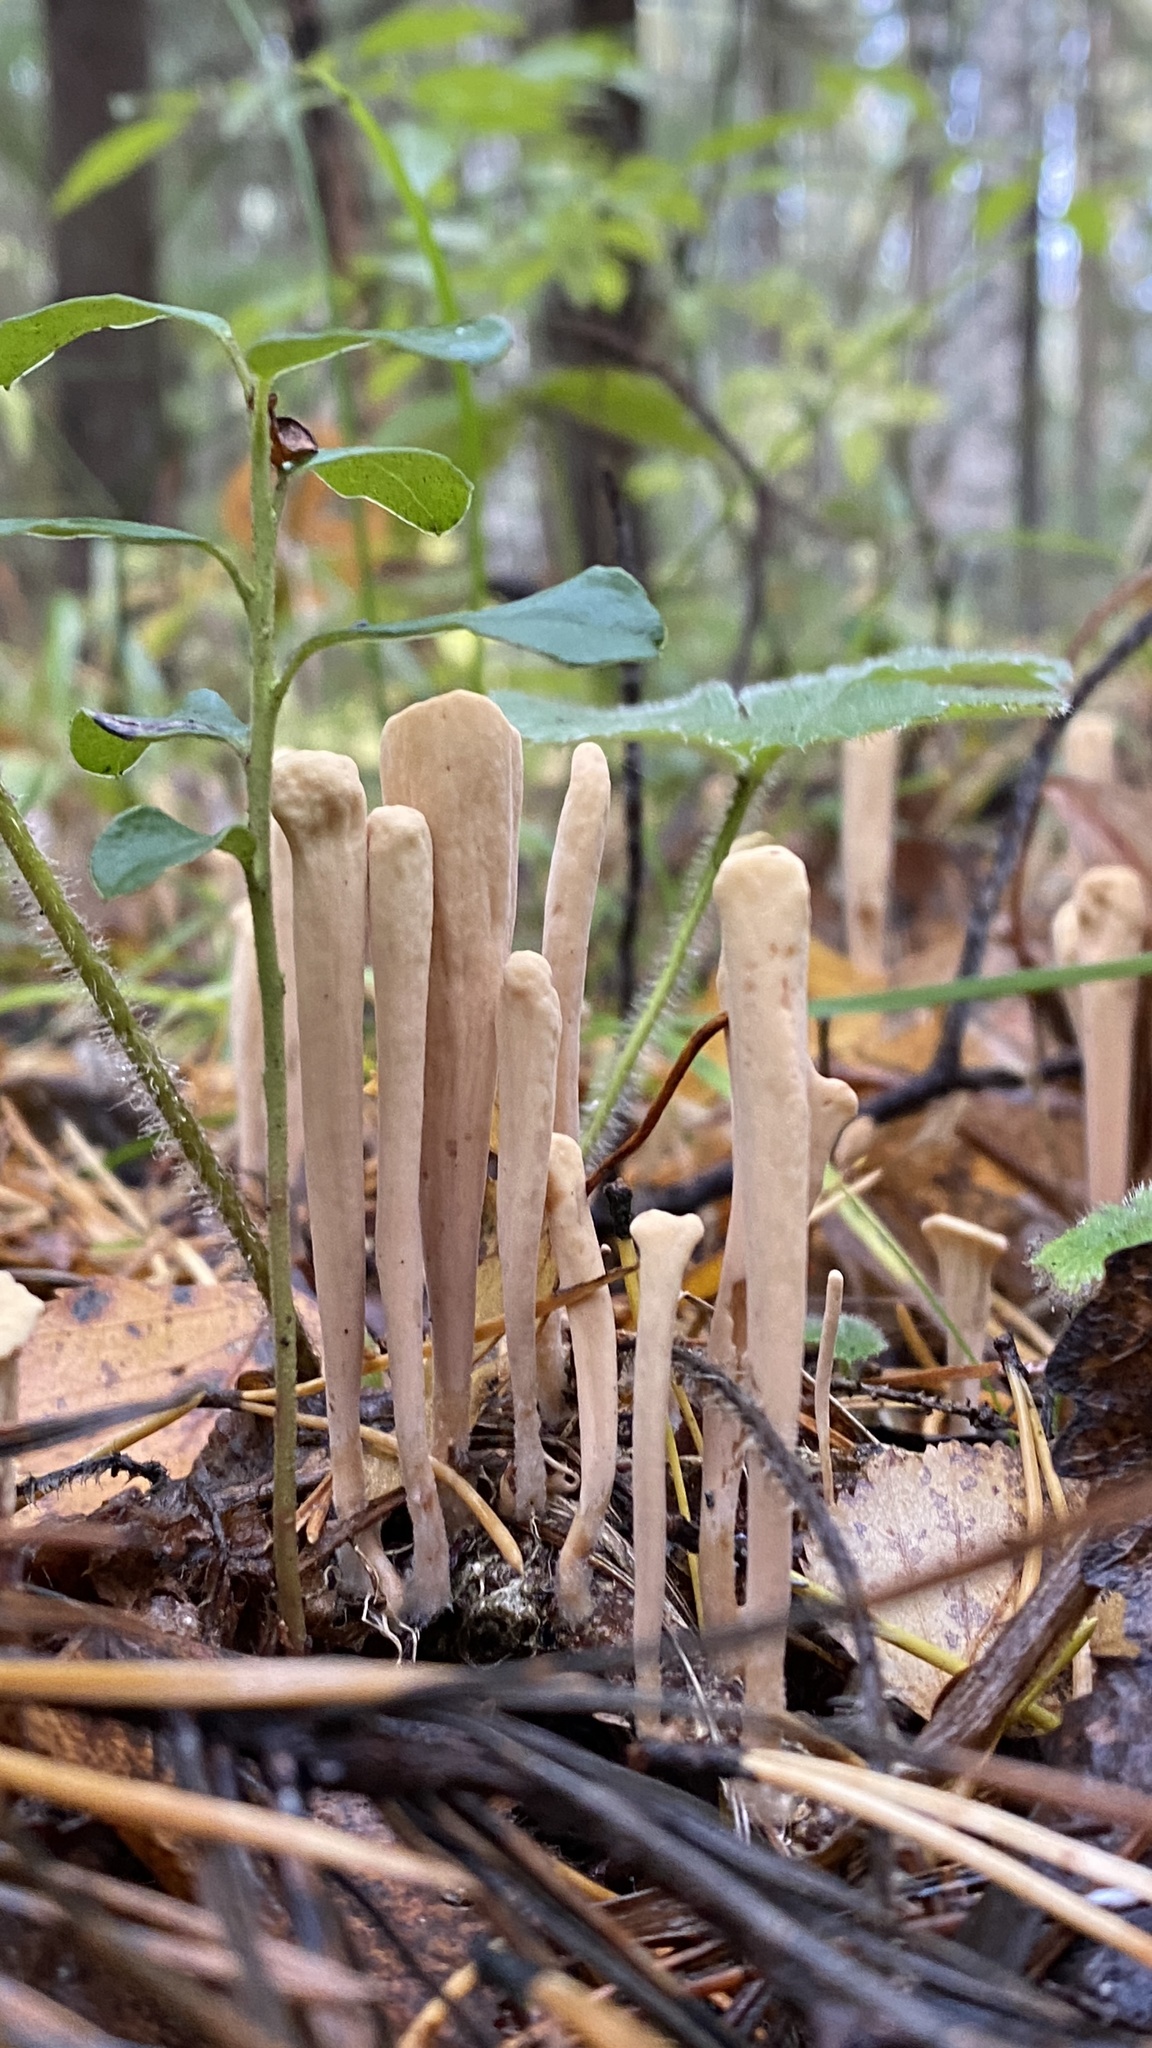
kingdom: Fungi
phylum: Basidiomycota
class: Agaricomycetes
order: Gomphales
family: Clavariadelphaceae
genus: Clavariadelphus
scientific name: Clavariadelphus pistillaris
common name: Giant club
